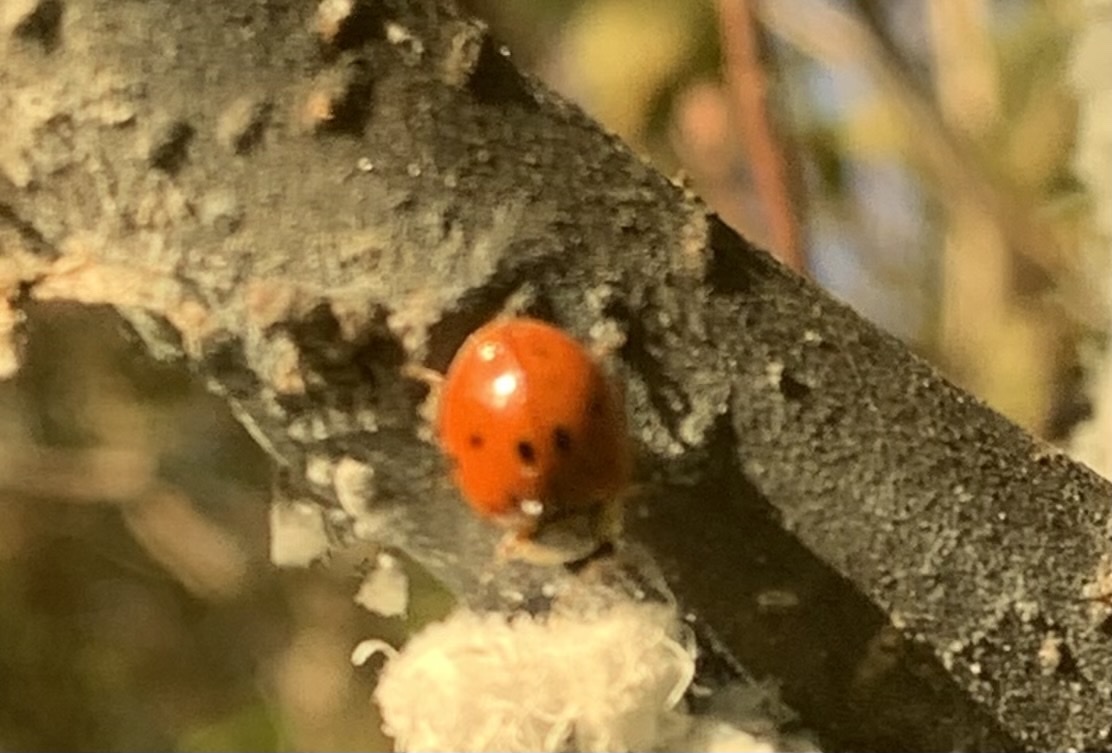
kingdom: Animalia
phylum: Arthropoda
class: Insecta
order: Coleoptera
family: Coccinellidae
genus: Harmonia
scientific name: Harmonia axyridis
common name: Harlequin ladybird
